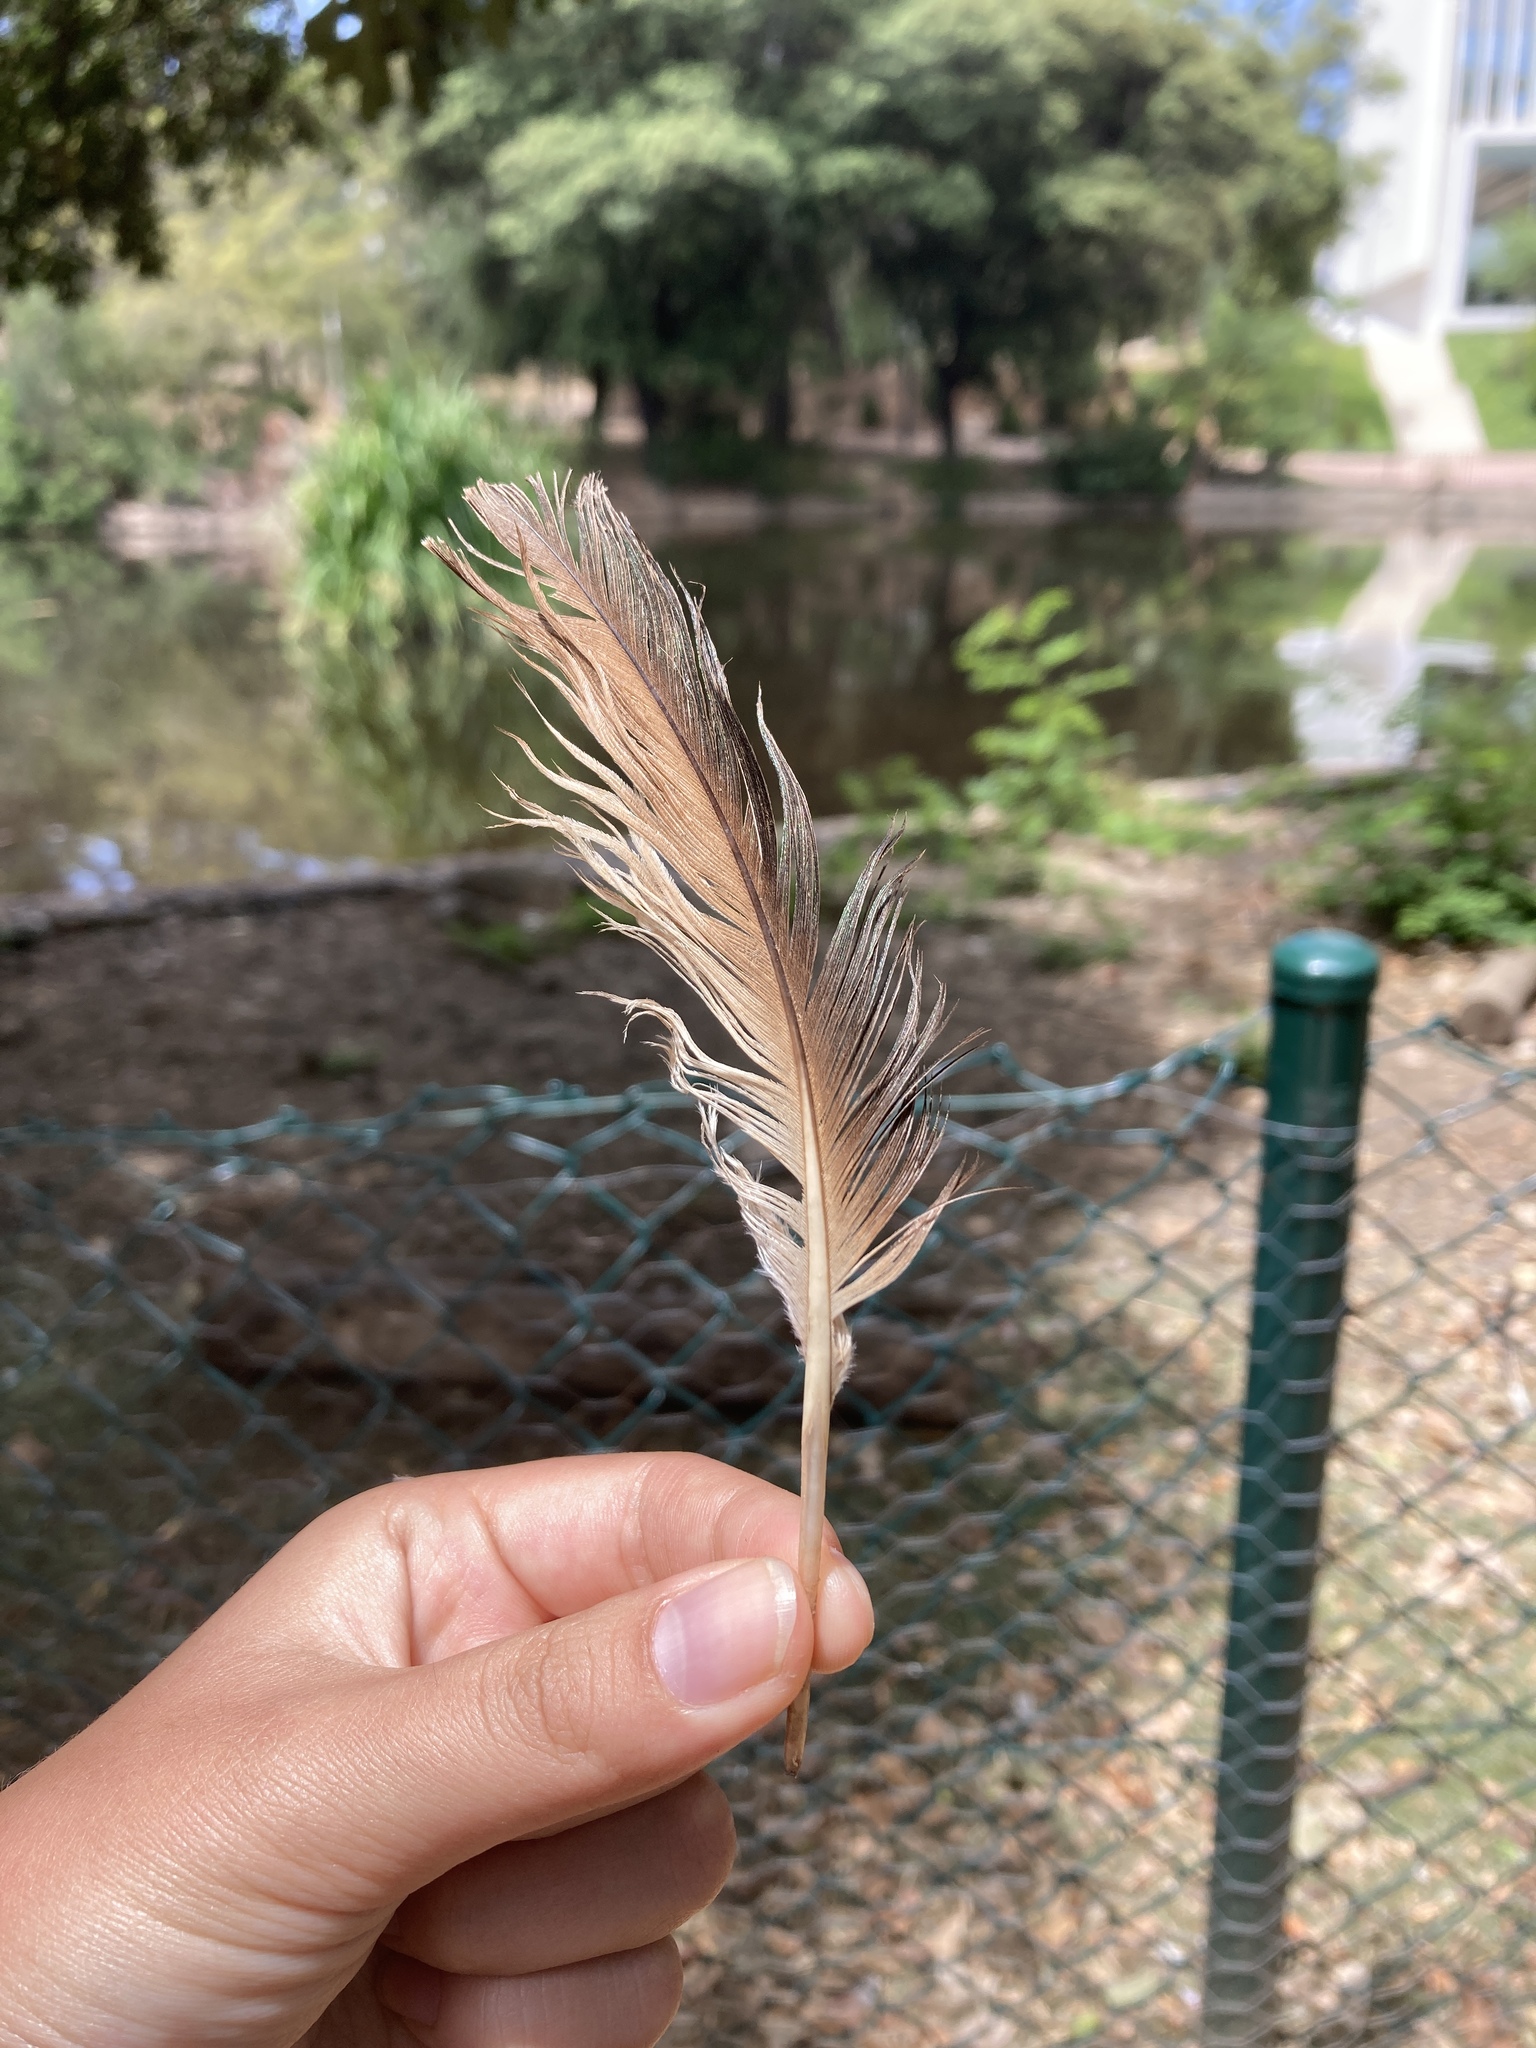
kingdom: Animalia
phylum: Chordata
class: Aves
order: Anseriformes
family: Anatidae
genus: Tadorna
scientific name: Tadorna ferruginea
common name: Ruddy shelduck
